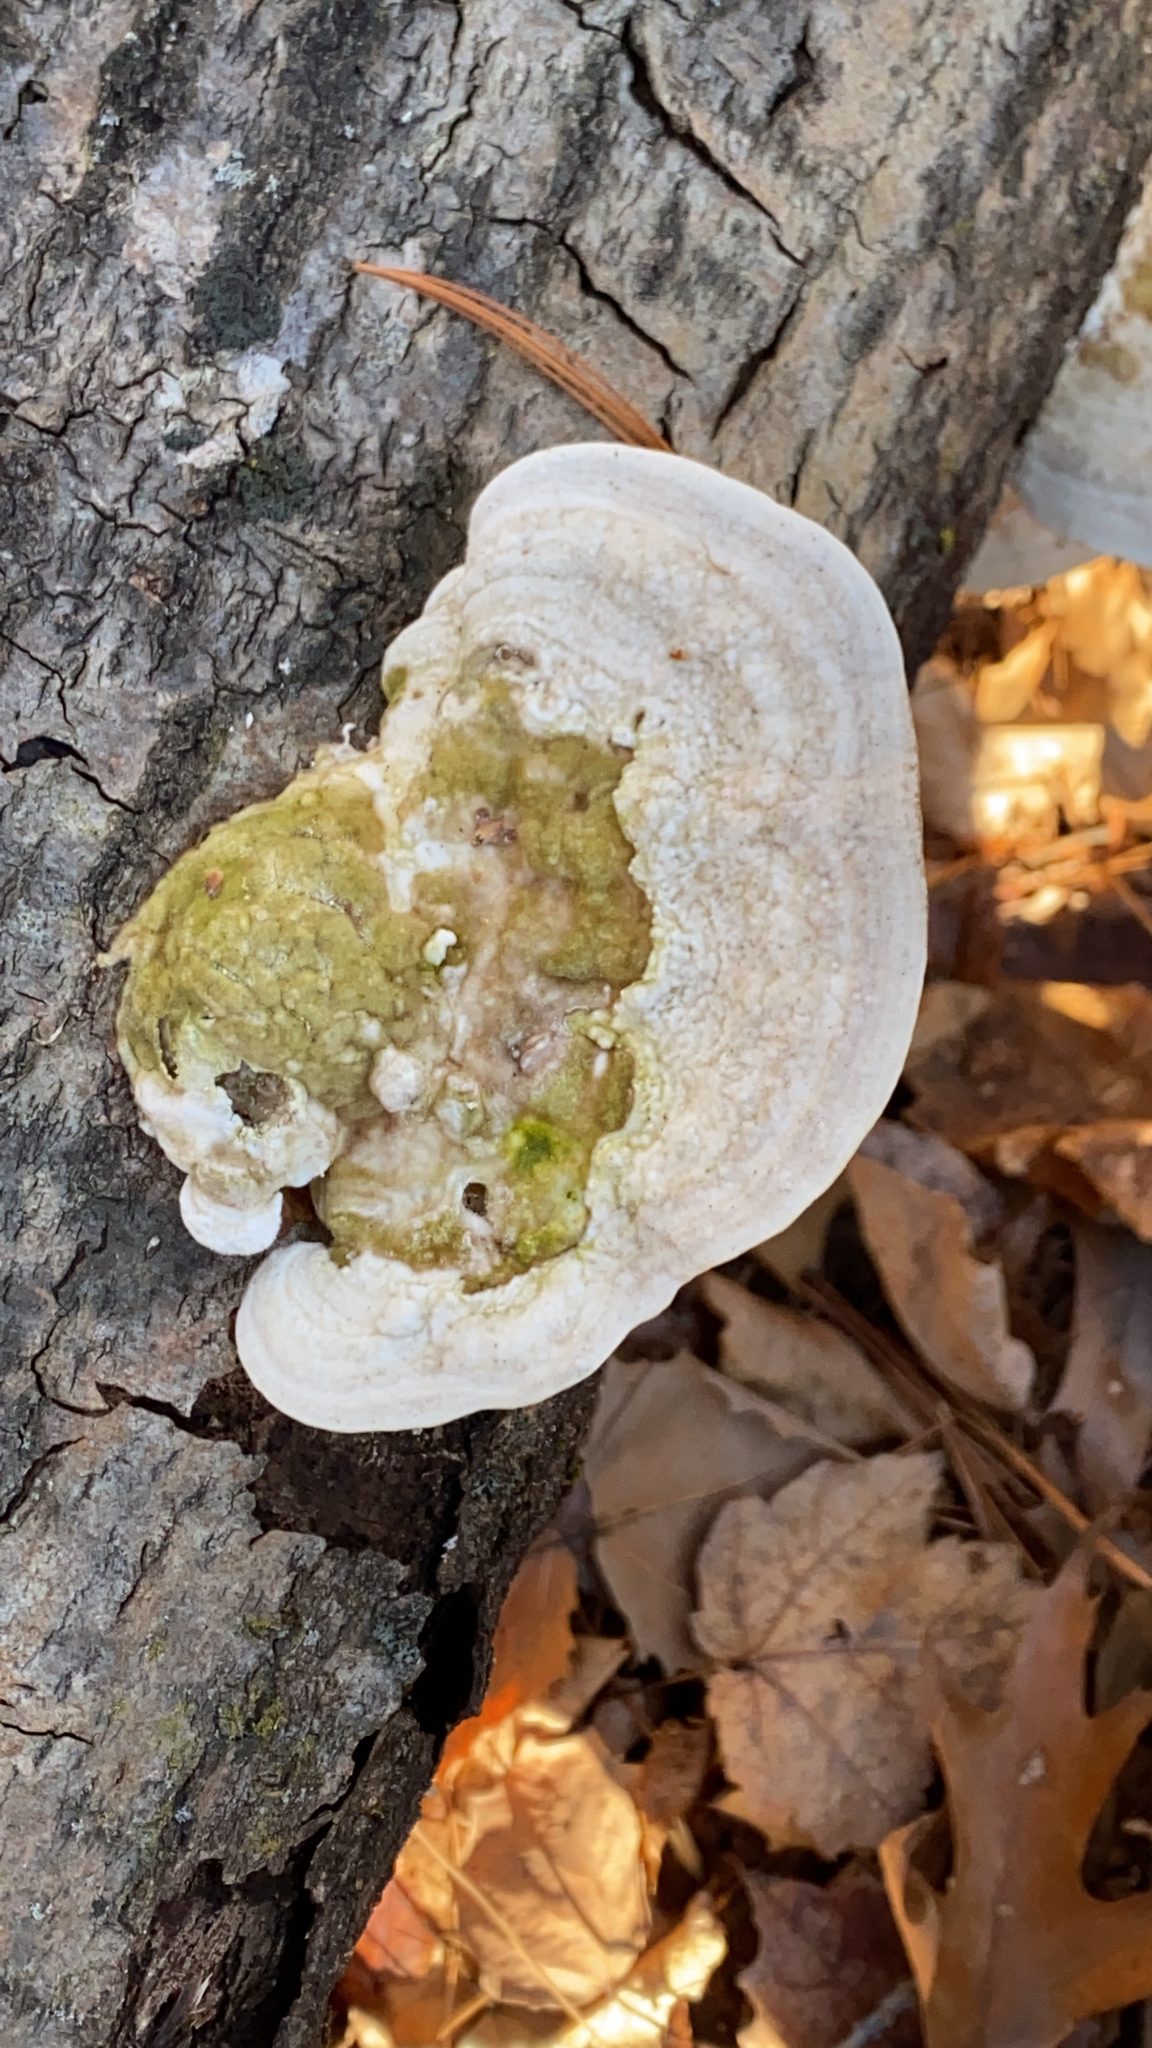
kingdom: Fungi
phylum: Basidiomycota
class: Agaricomycetes
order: Polyporales
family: Polyporaceae
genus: Trametes
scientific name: Trametes gibbosa
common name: Lumpy bracket
